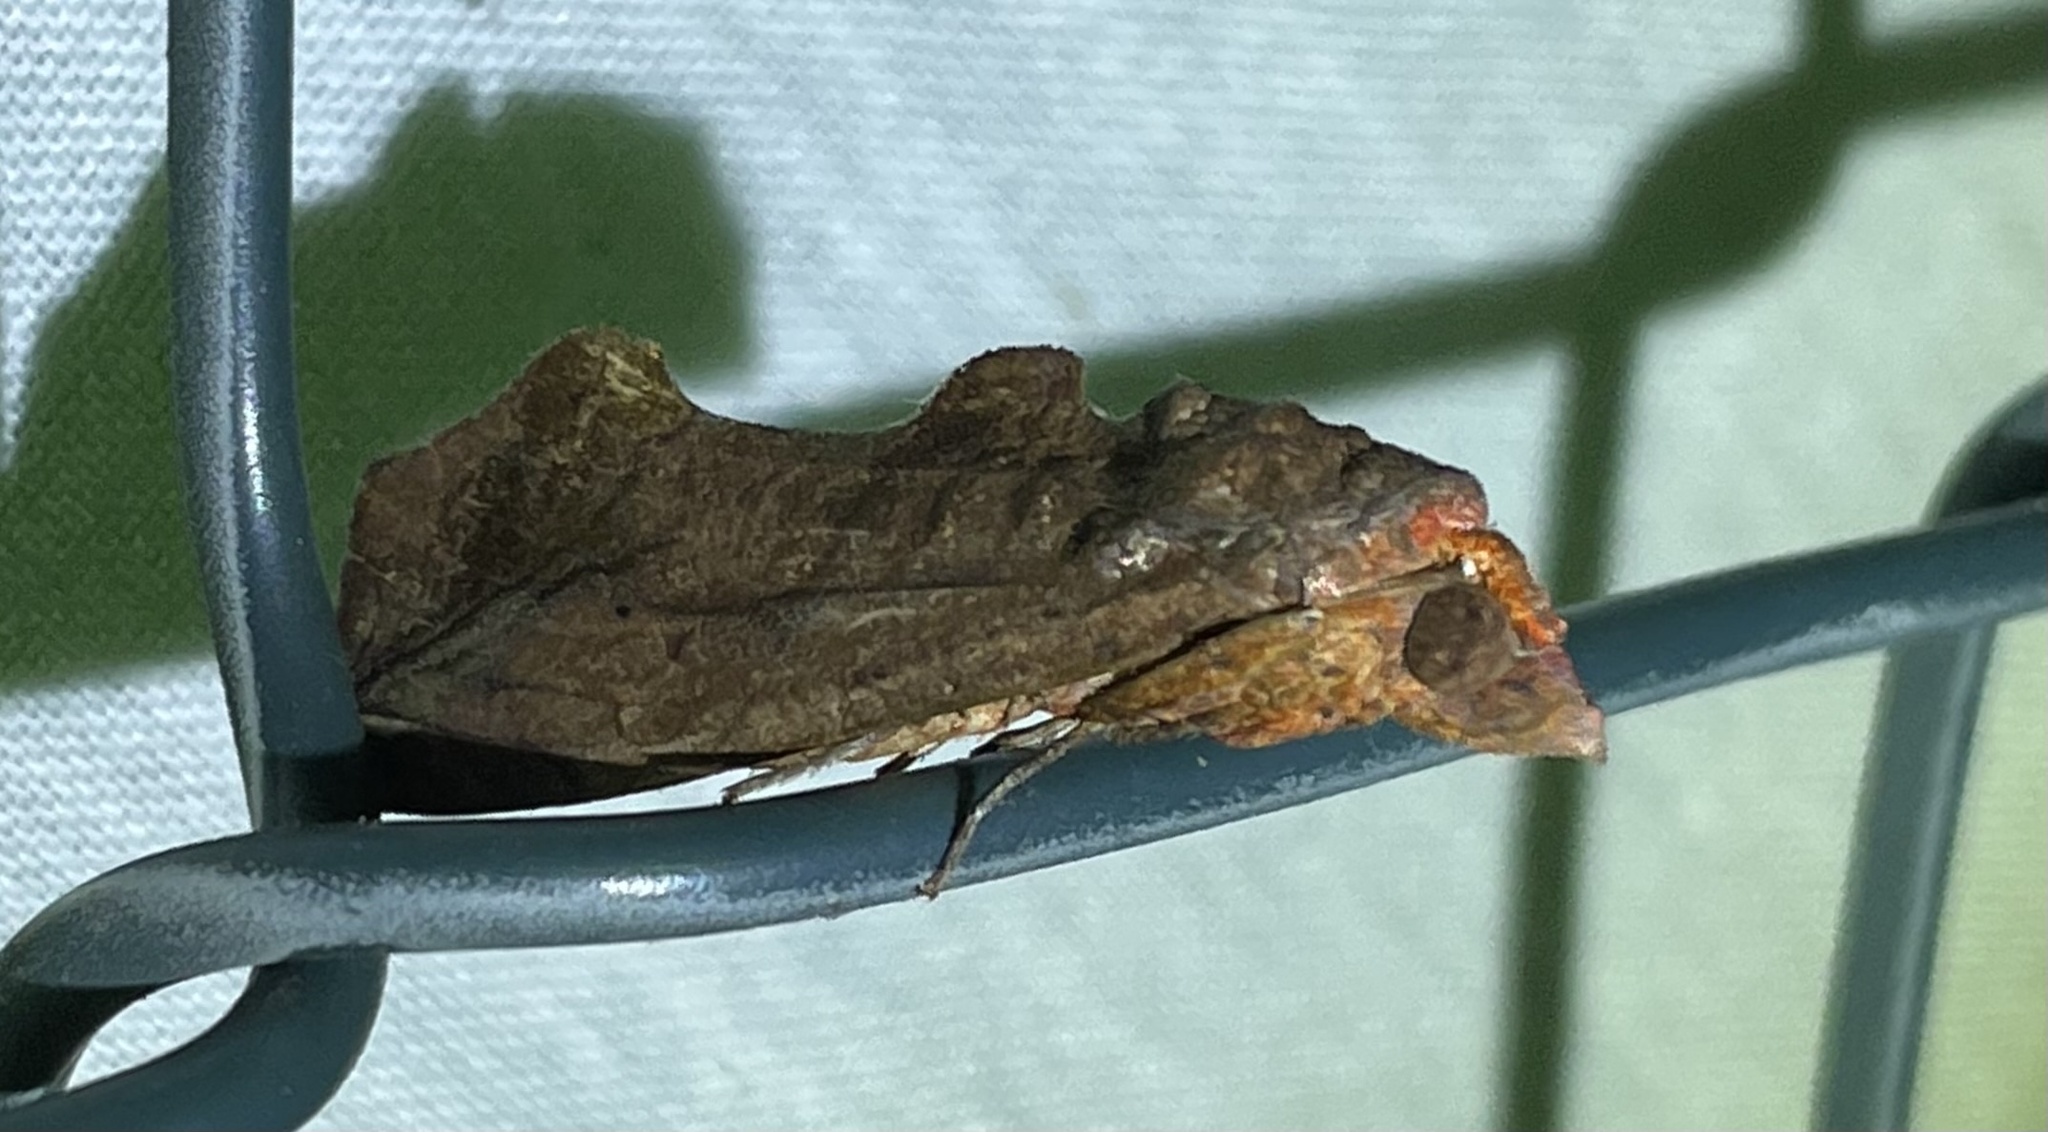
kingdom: Animalia
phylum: Arthropoda
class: Insecta
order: Lepidoptera
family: Erebidae
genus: Oraesia
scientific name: Oraesia provocans
